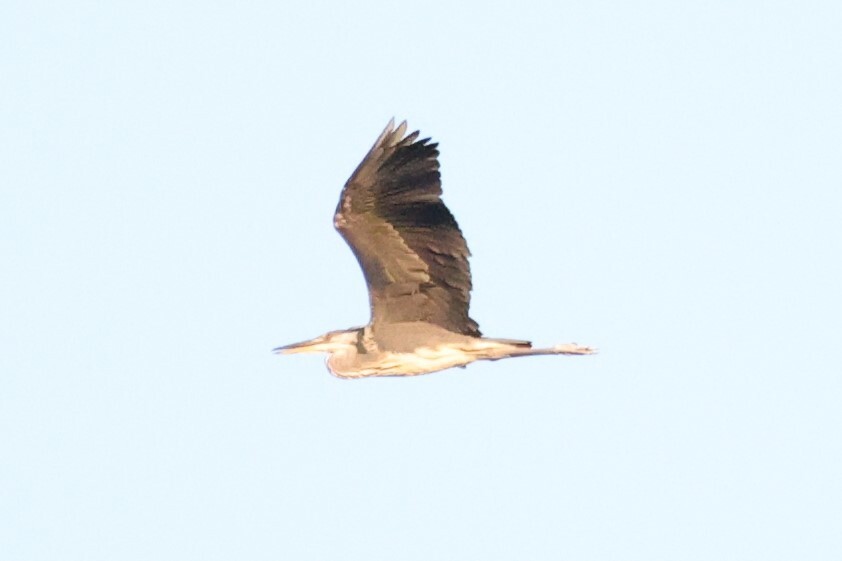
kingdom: Animalia
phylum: Chordata
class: Aves
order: Pelecaniformes
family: Ardeidae
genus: Ardea
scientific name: Ardea cinerea
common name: Grey heron
